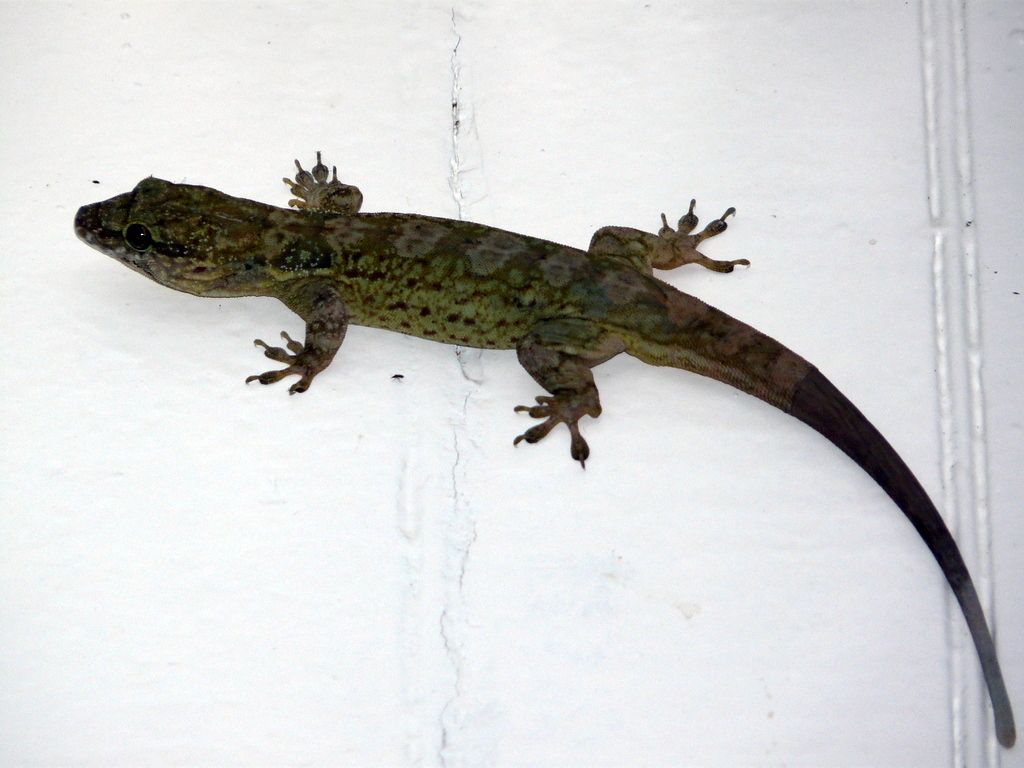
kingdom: Animalia
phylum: Chordata
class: Squamata
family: Sphaerodactylidae
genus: Aristelliger
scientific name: Aristelliger praesignis
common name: Croaking lizard
